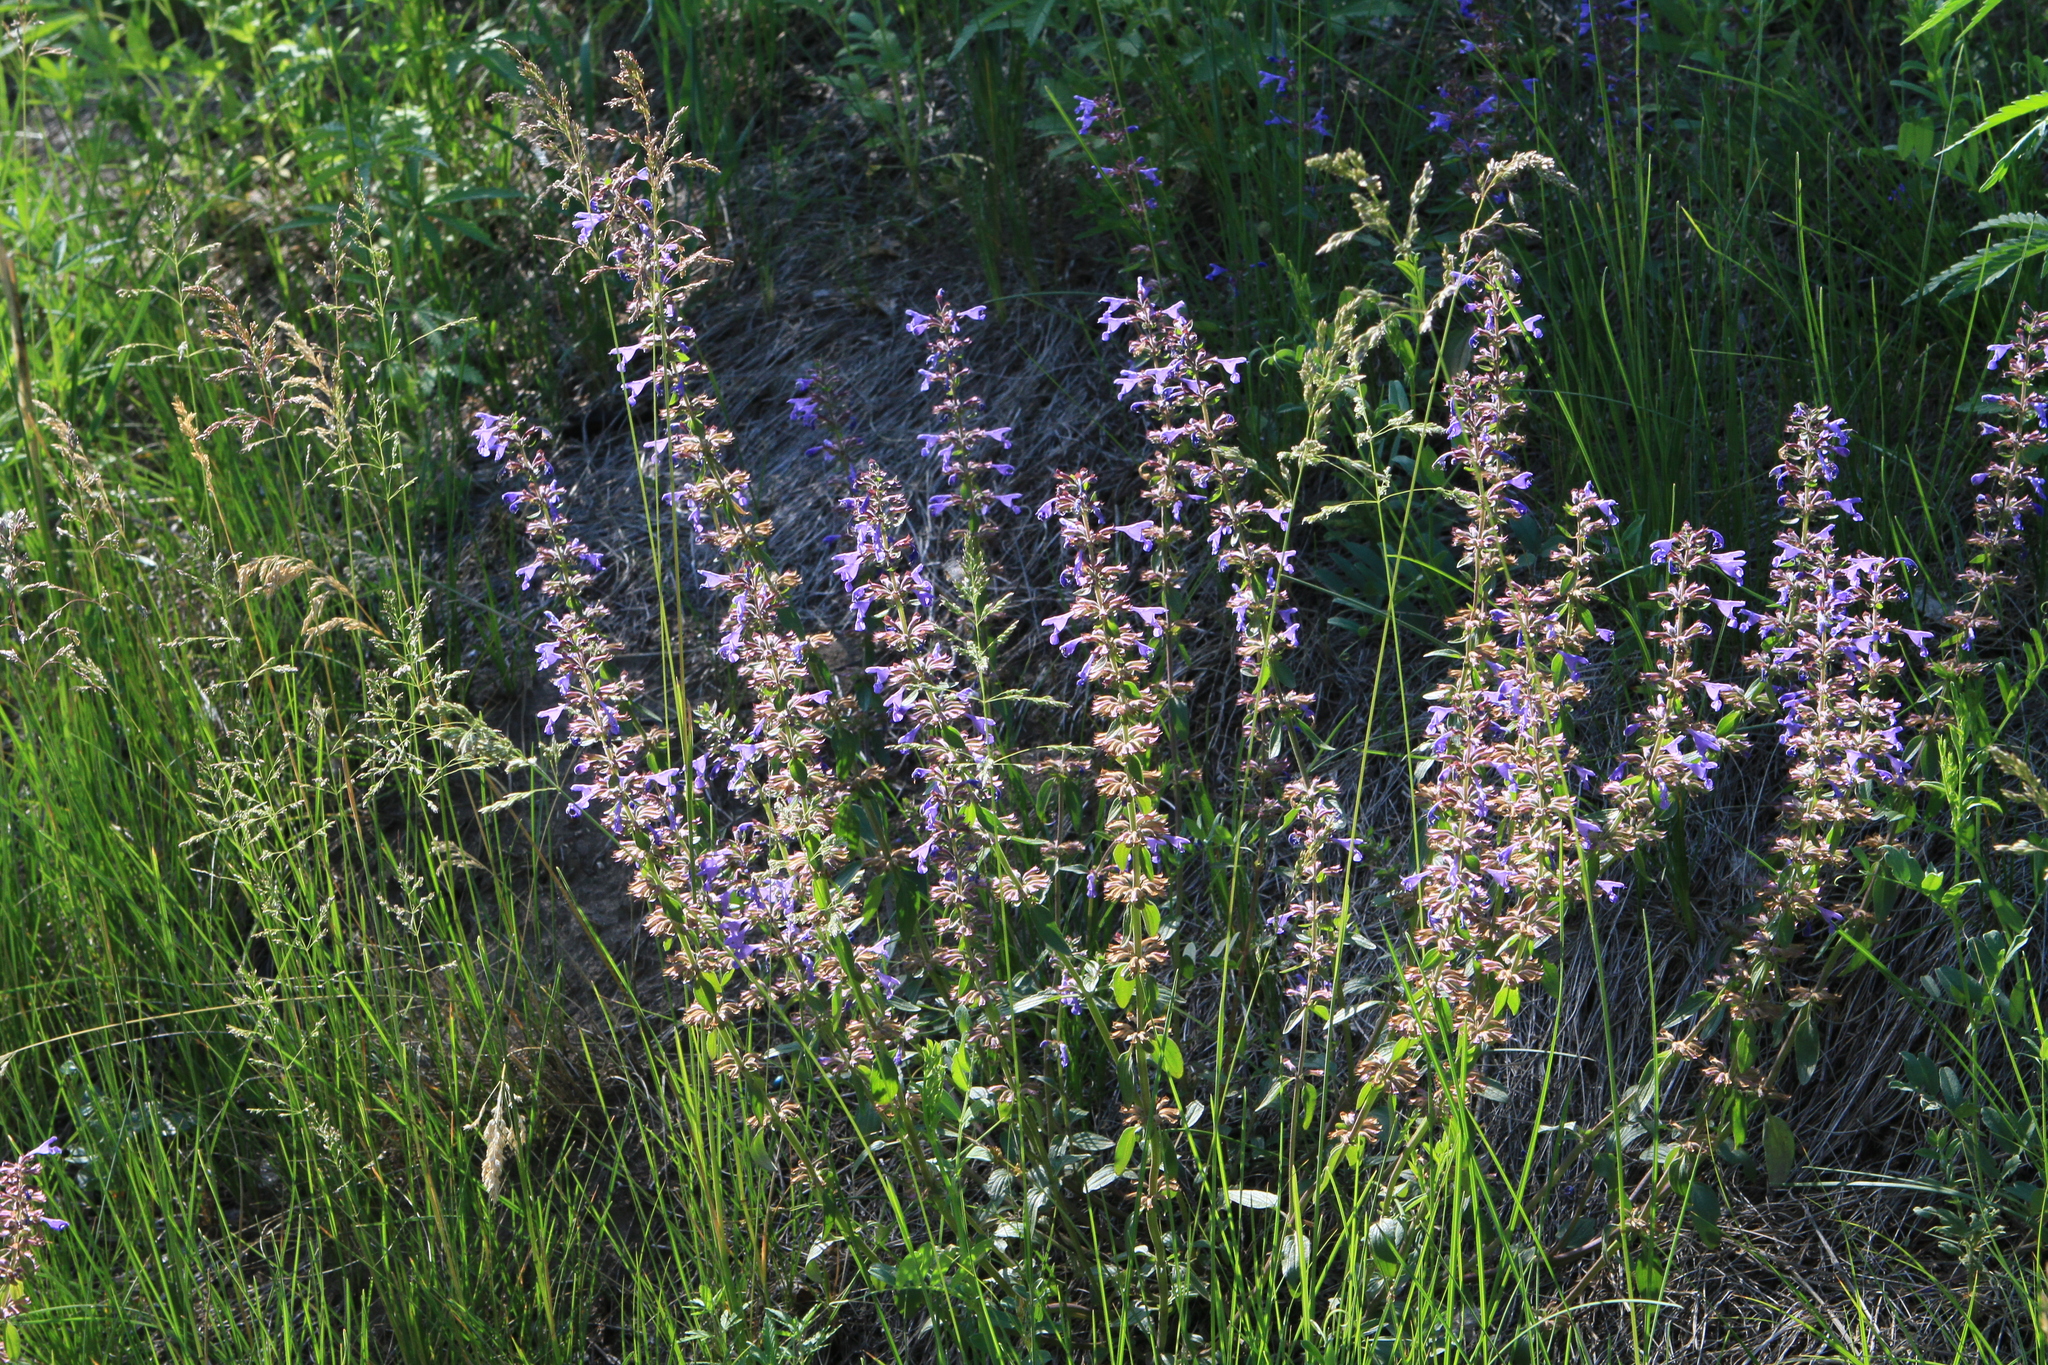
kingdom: Plantae
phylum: Tracheophyta
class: Magnoliopsida
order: Lamiales
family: Lamiaceae
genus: Dracocephalum
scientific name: Dracocephalum nutans
